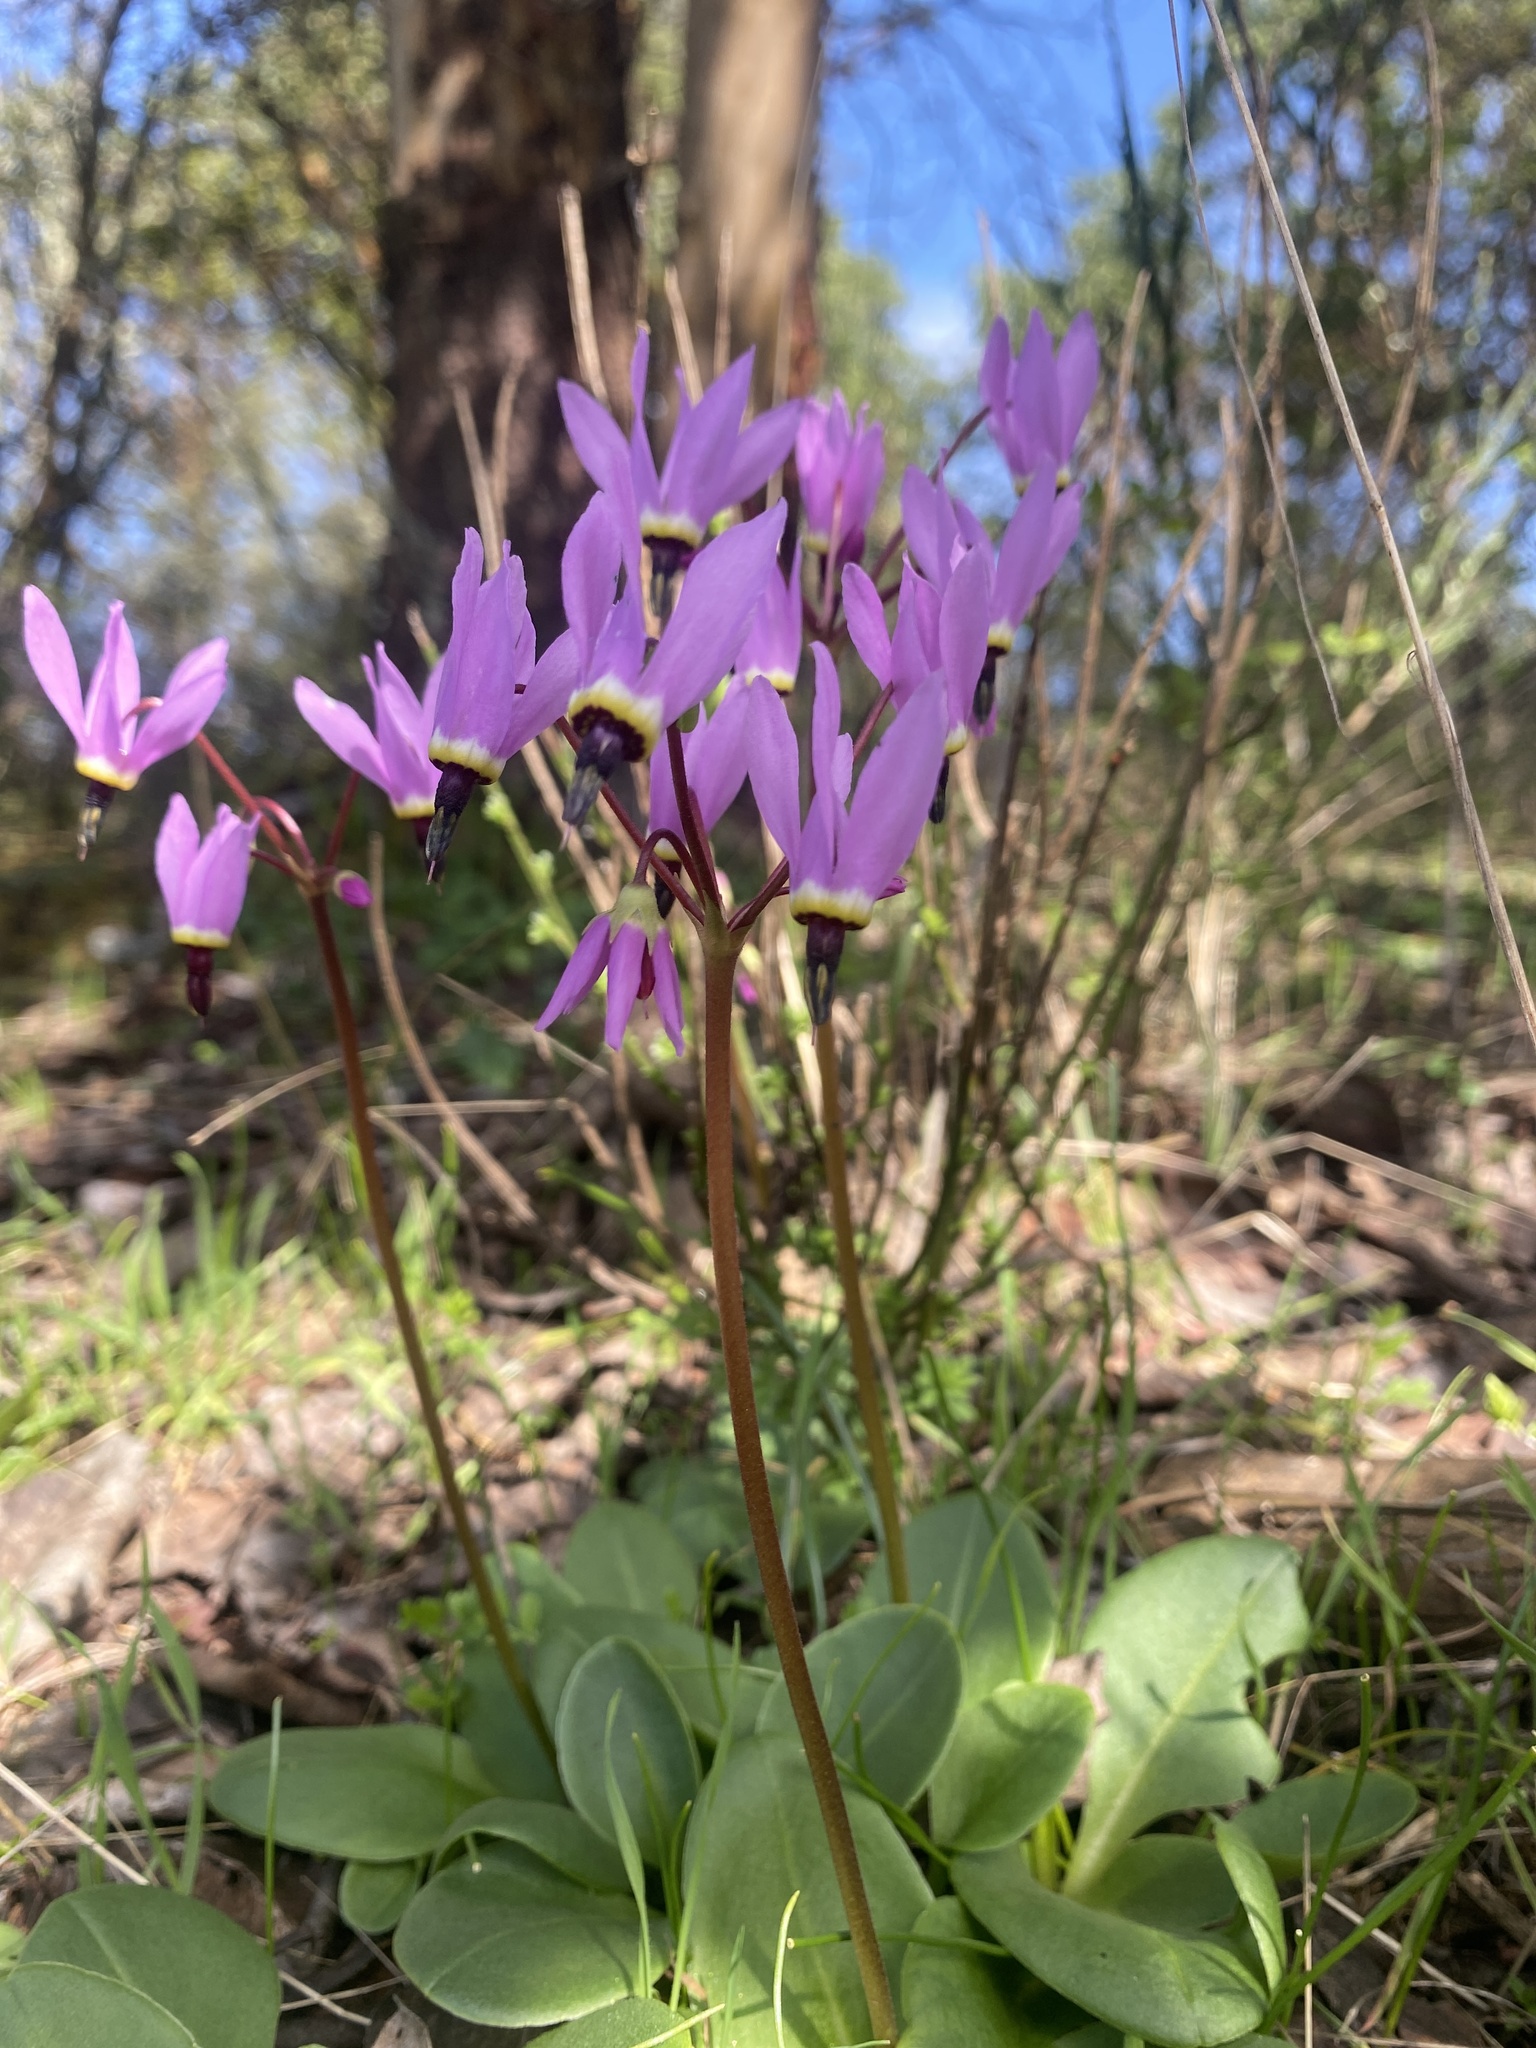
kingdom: Plantae
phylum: Tracheophyta
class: Magnoliopsida
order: Ericales
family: Primulaceae
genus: Dodecatheon
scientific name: Dodecatheon hendersonii
